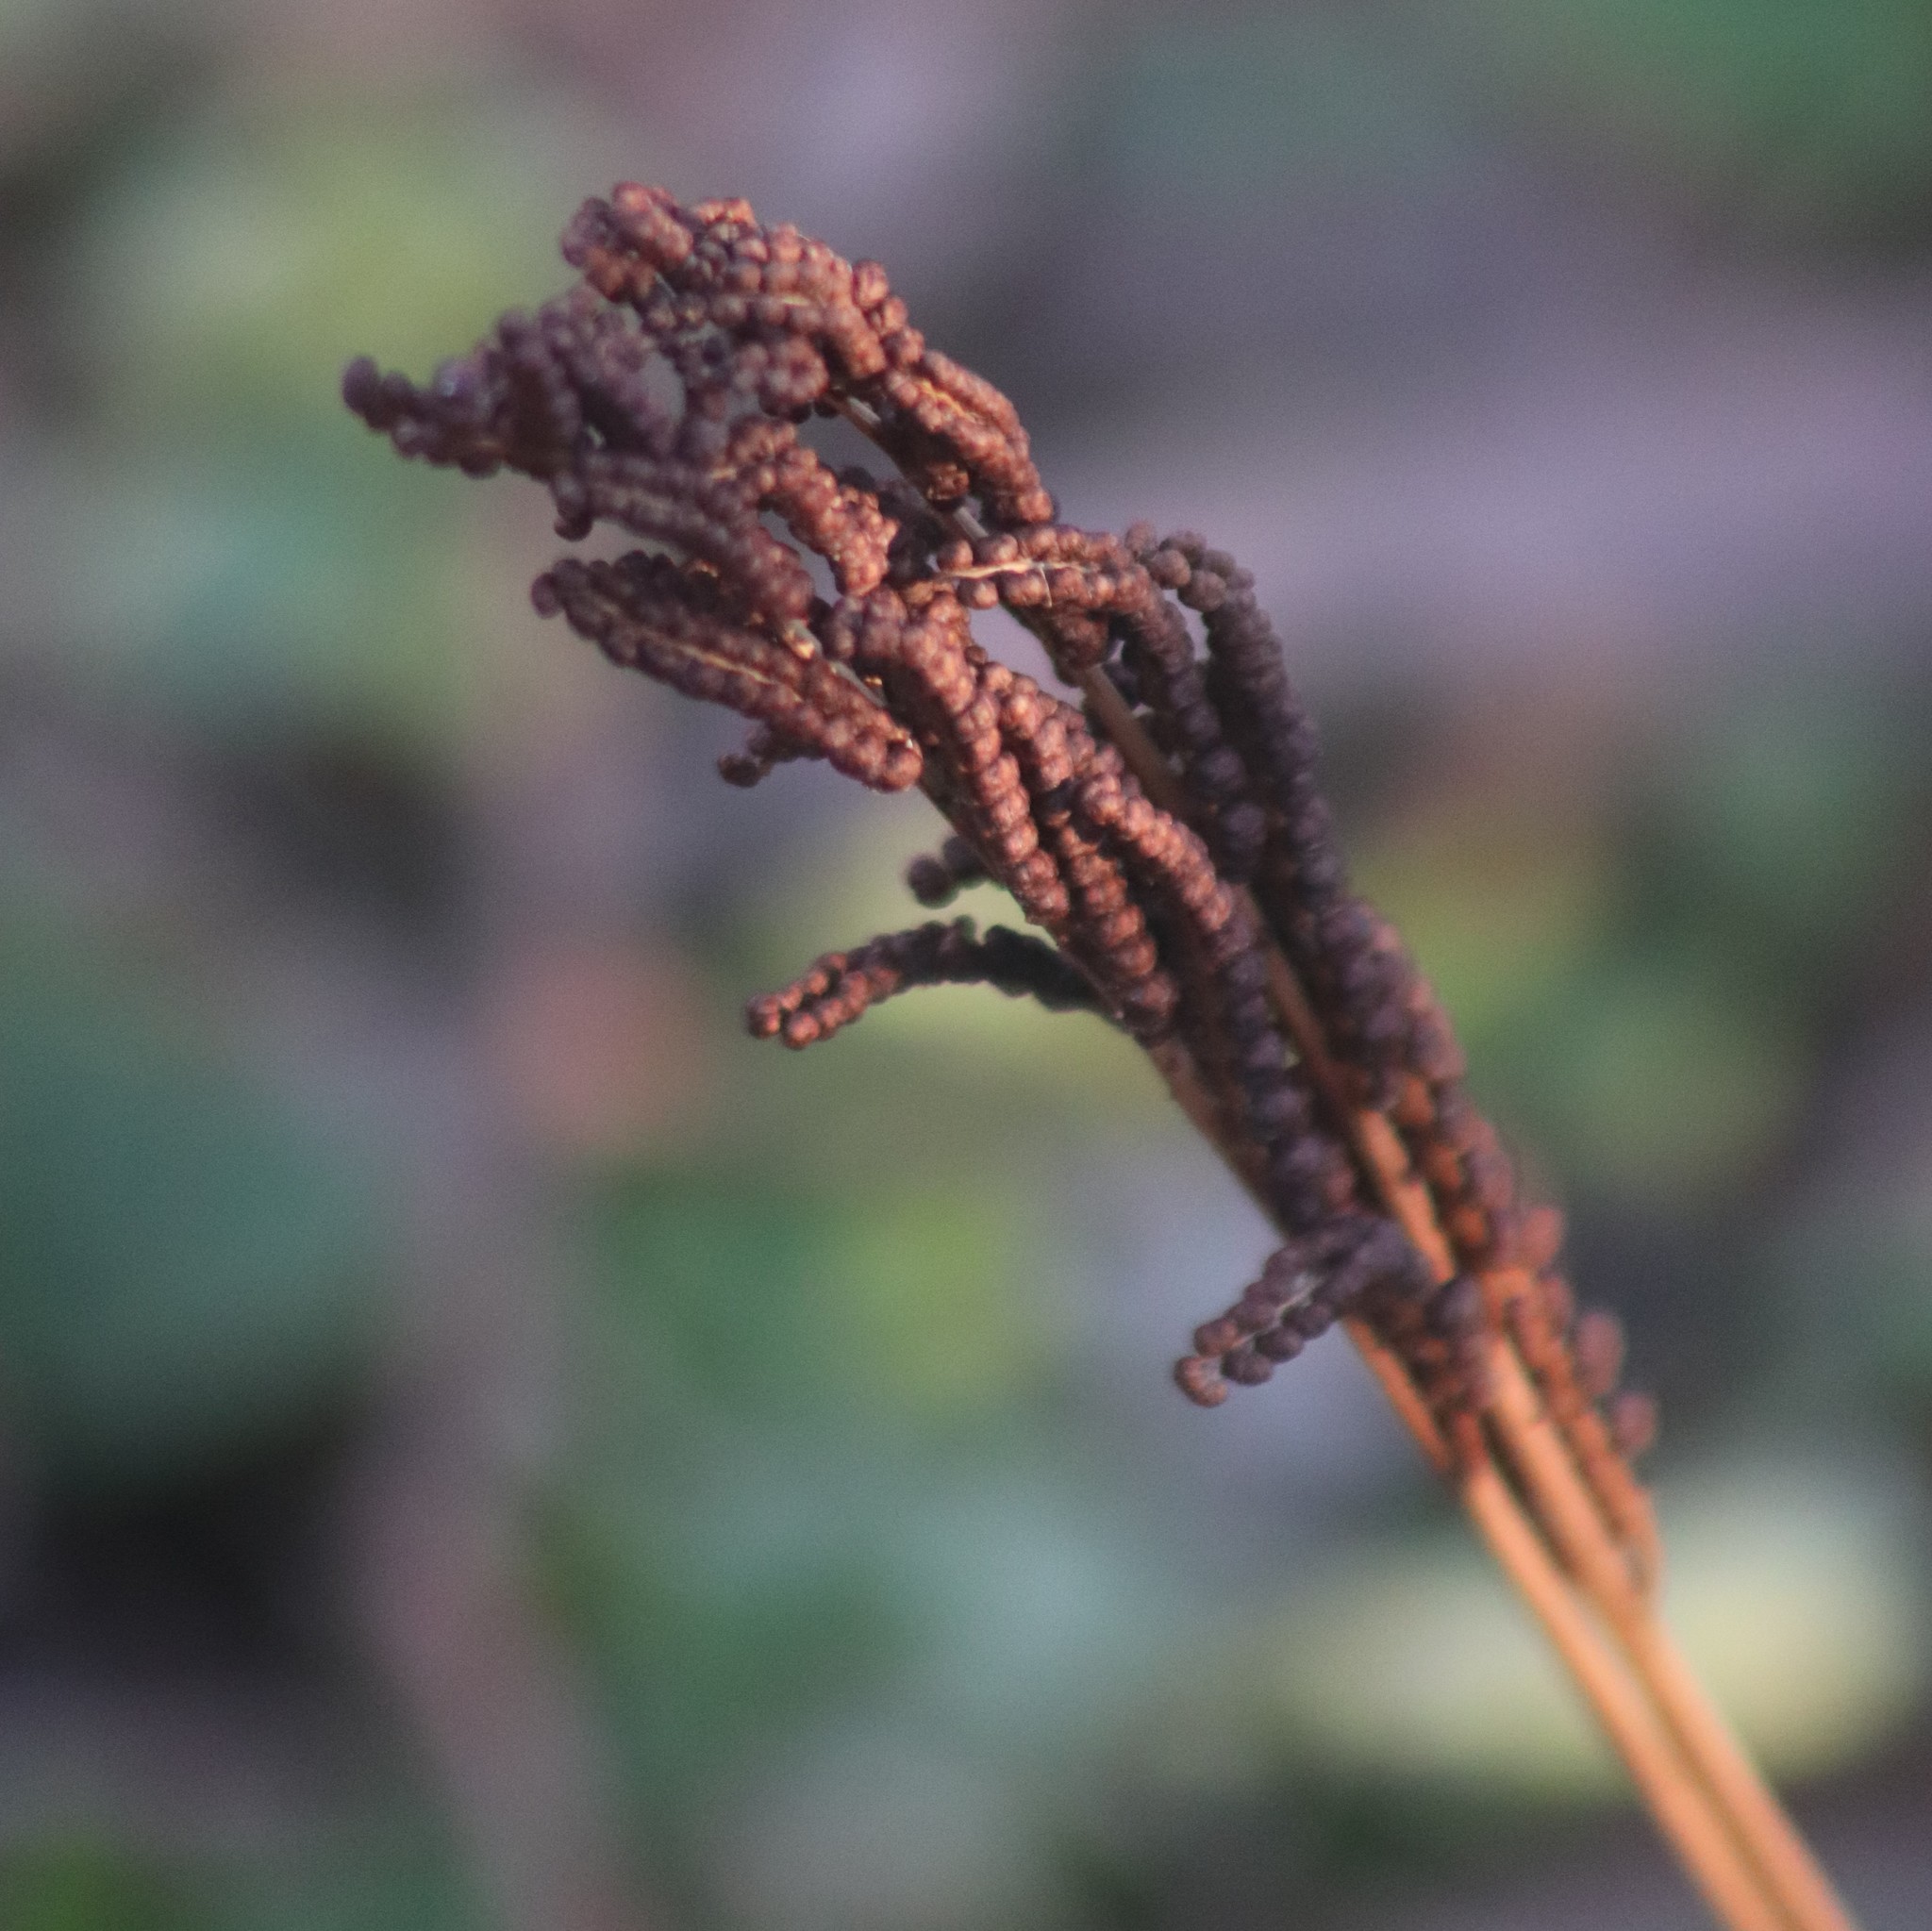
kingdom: Plantae
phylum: Tracheophyta
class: Polypodiopsida
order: Polypodiales
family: Onocleaceae
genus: Onoclea
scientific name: Onoclea sensibilis
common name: Sensitive fern
